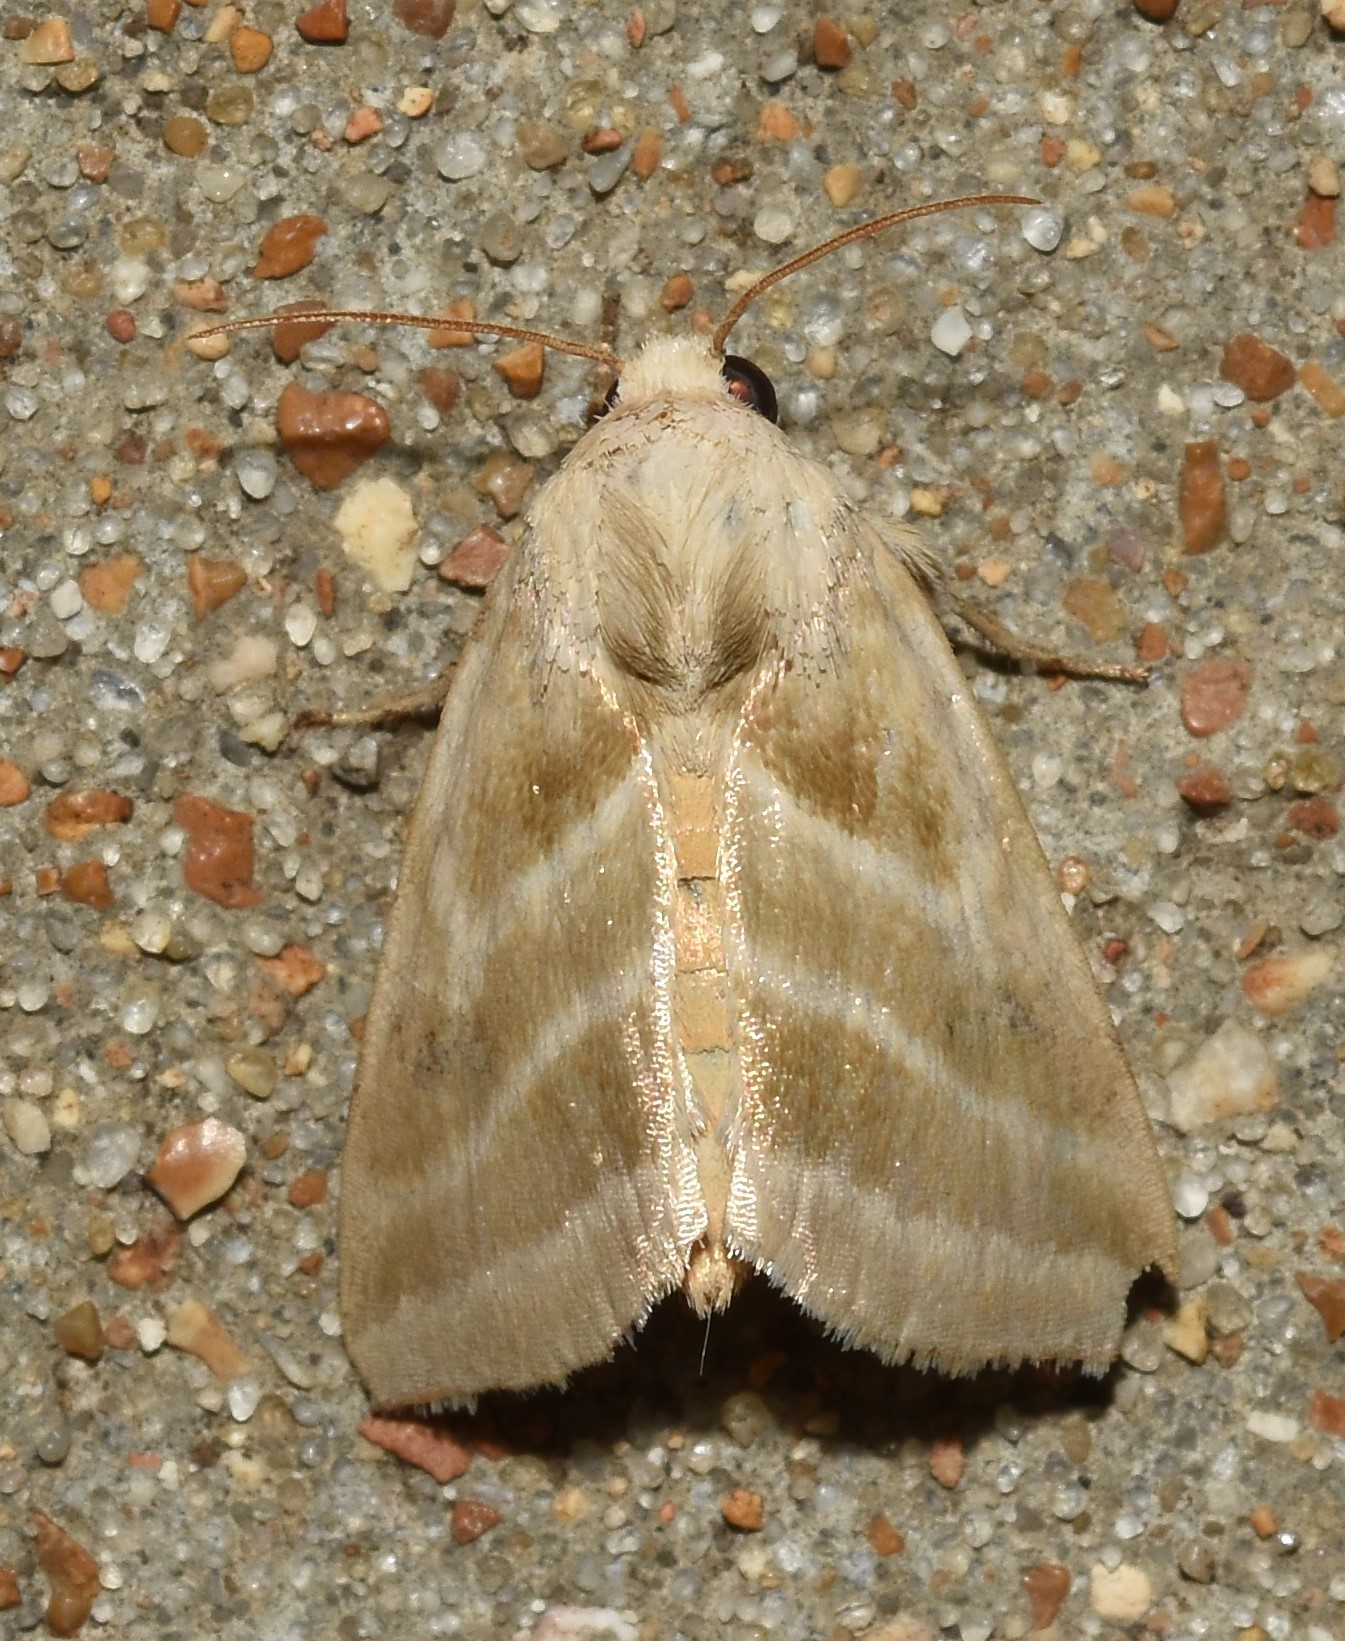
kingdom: Animalia
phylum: Arthropoda
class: Insecta
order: Lepidoptera
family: Noctuidae
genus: Schinia
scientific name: Schinia trifascia
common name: Three-lined flower moth
